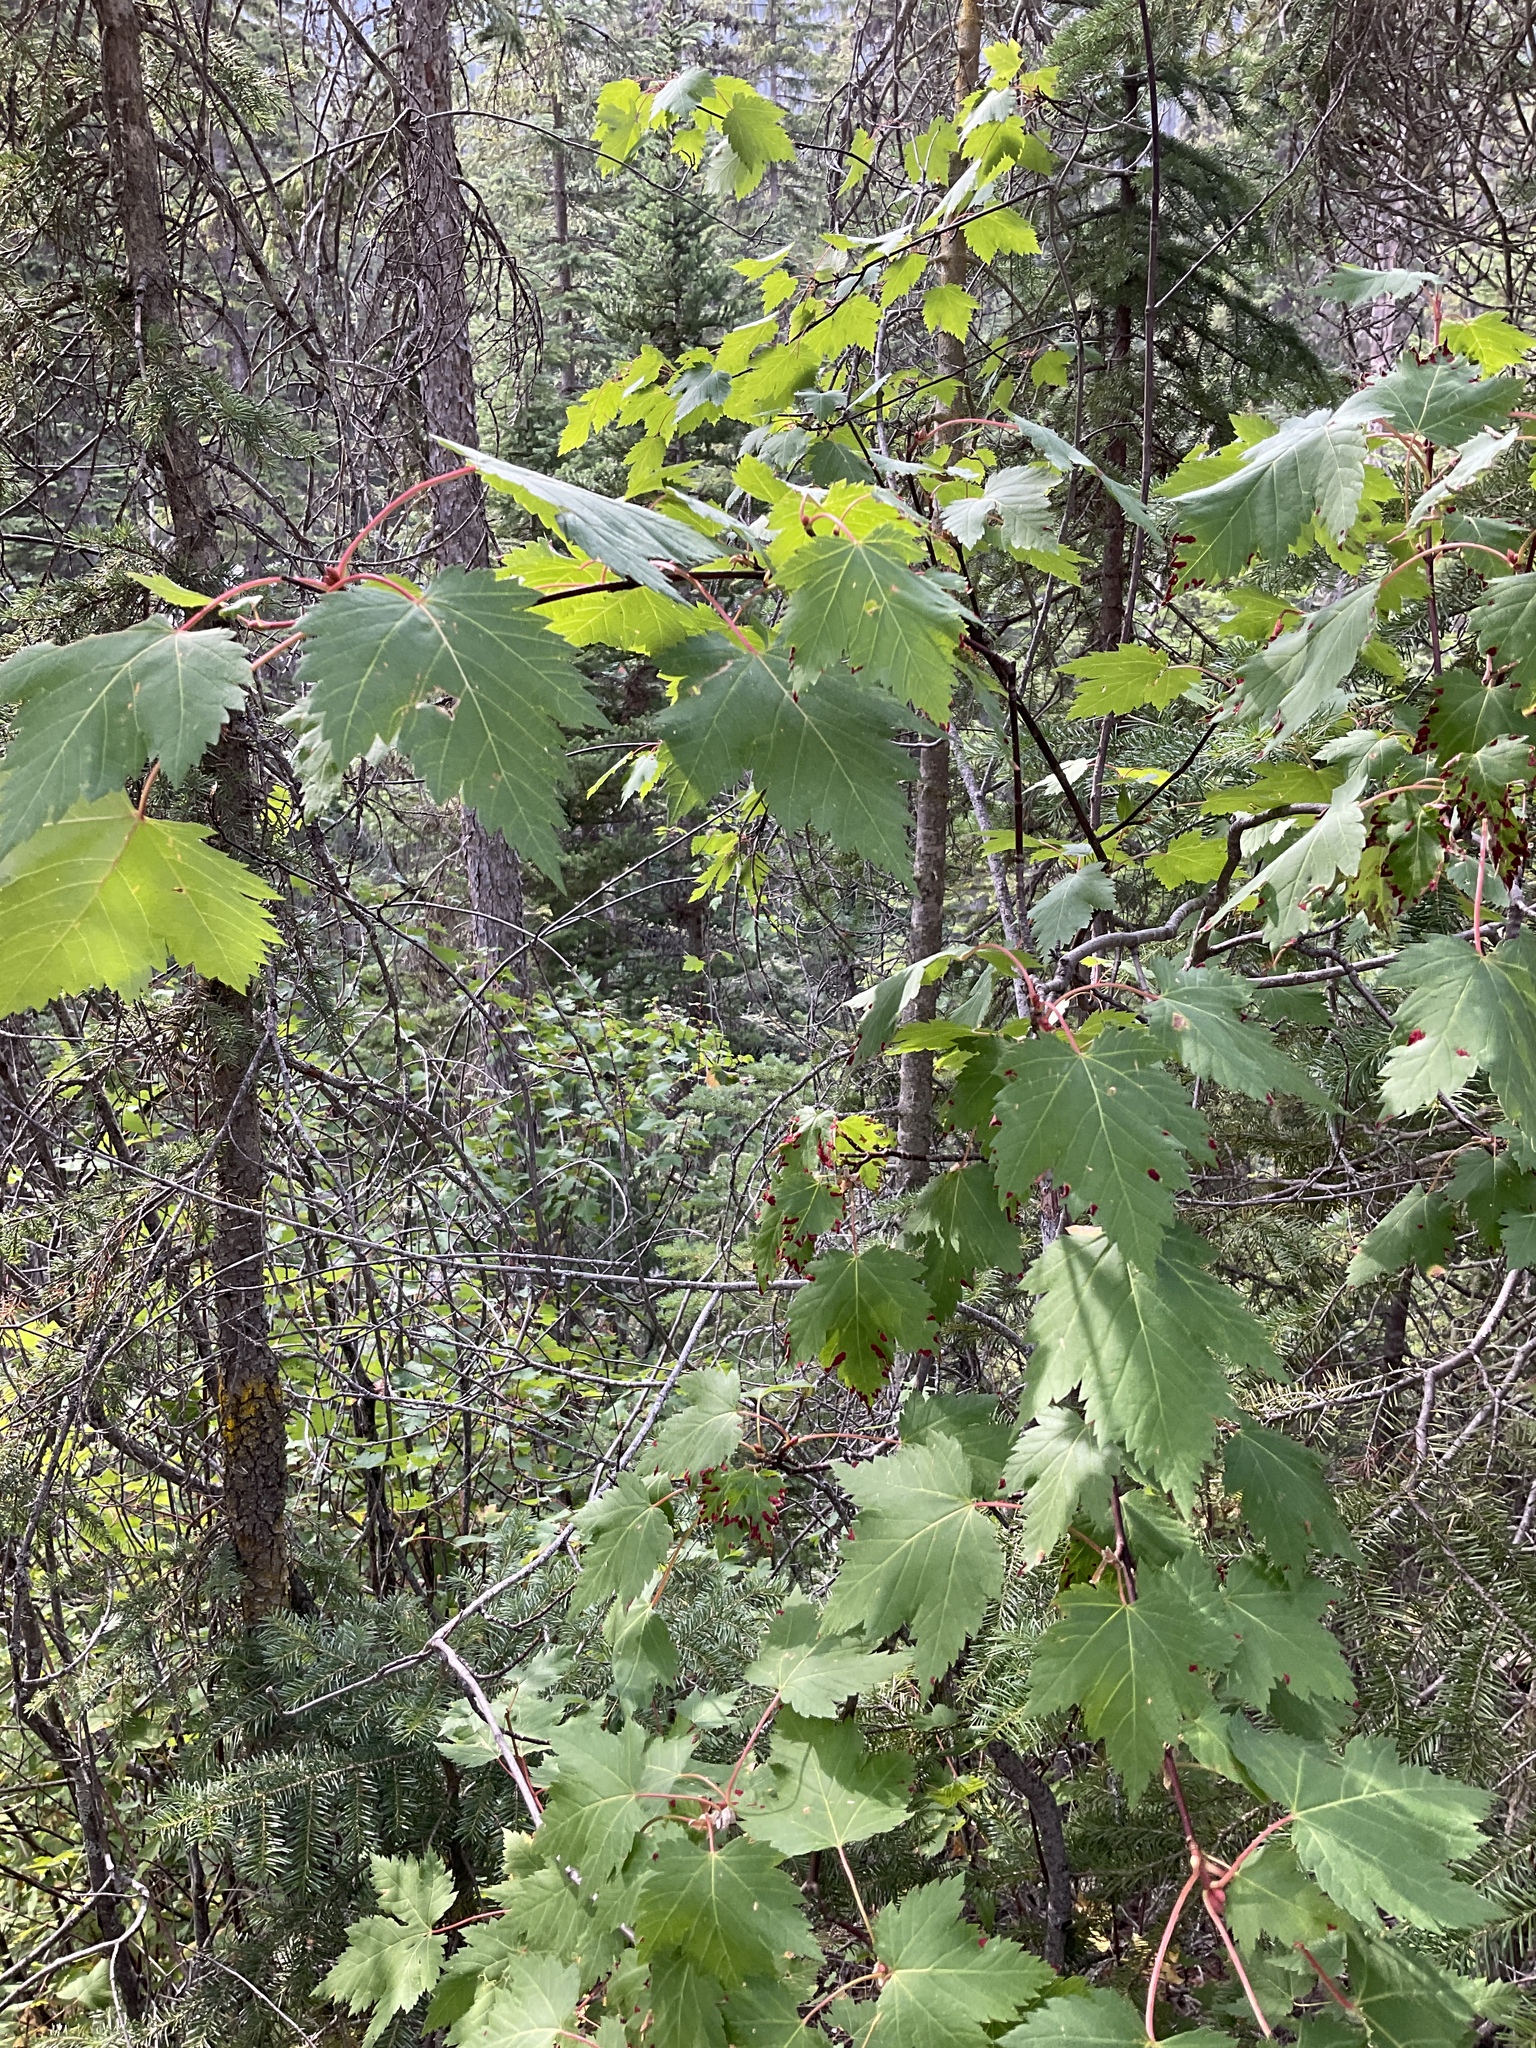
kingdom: Plantae
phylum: Tracheophyta
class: Magnoliopsida
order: Sapindales
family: Sapindaceae
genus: Acer
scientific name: Acer glabrum
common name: Rocky mountain maple
